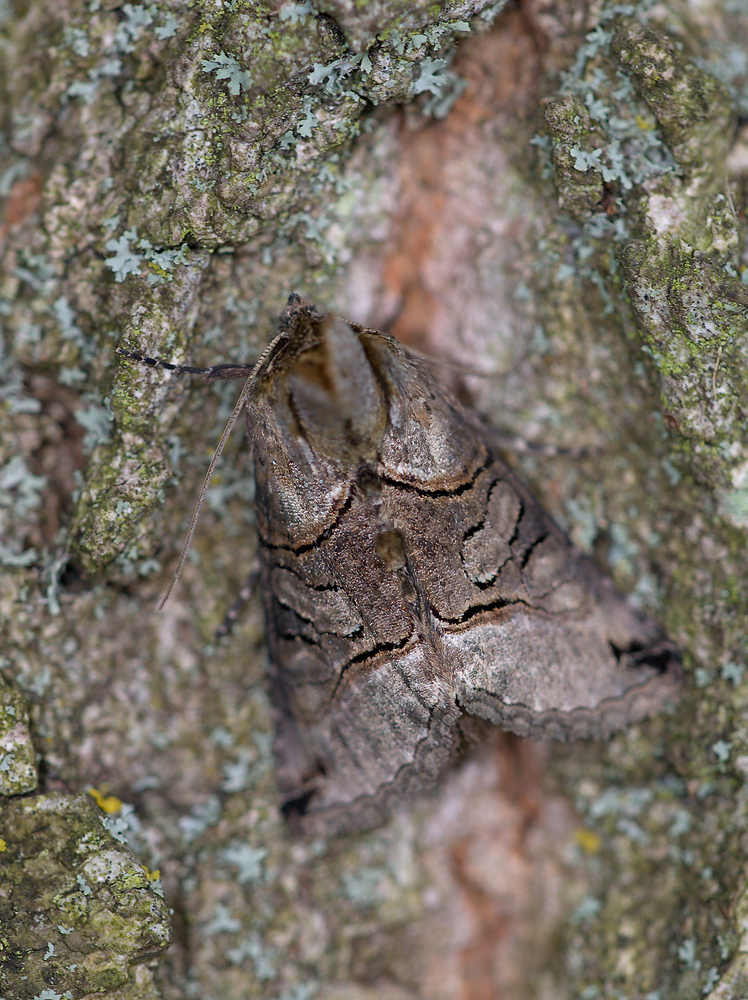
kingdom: Animalia
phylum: Arthropoda
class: Insecta
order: Lepidoptera
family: Noctuidae
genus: Abrostola
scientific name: Abrostola tripartita
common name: Spectacle
